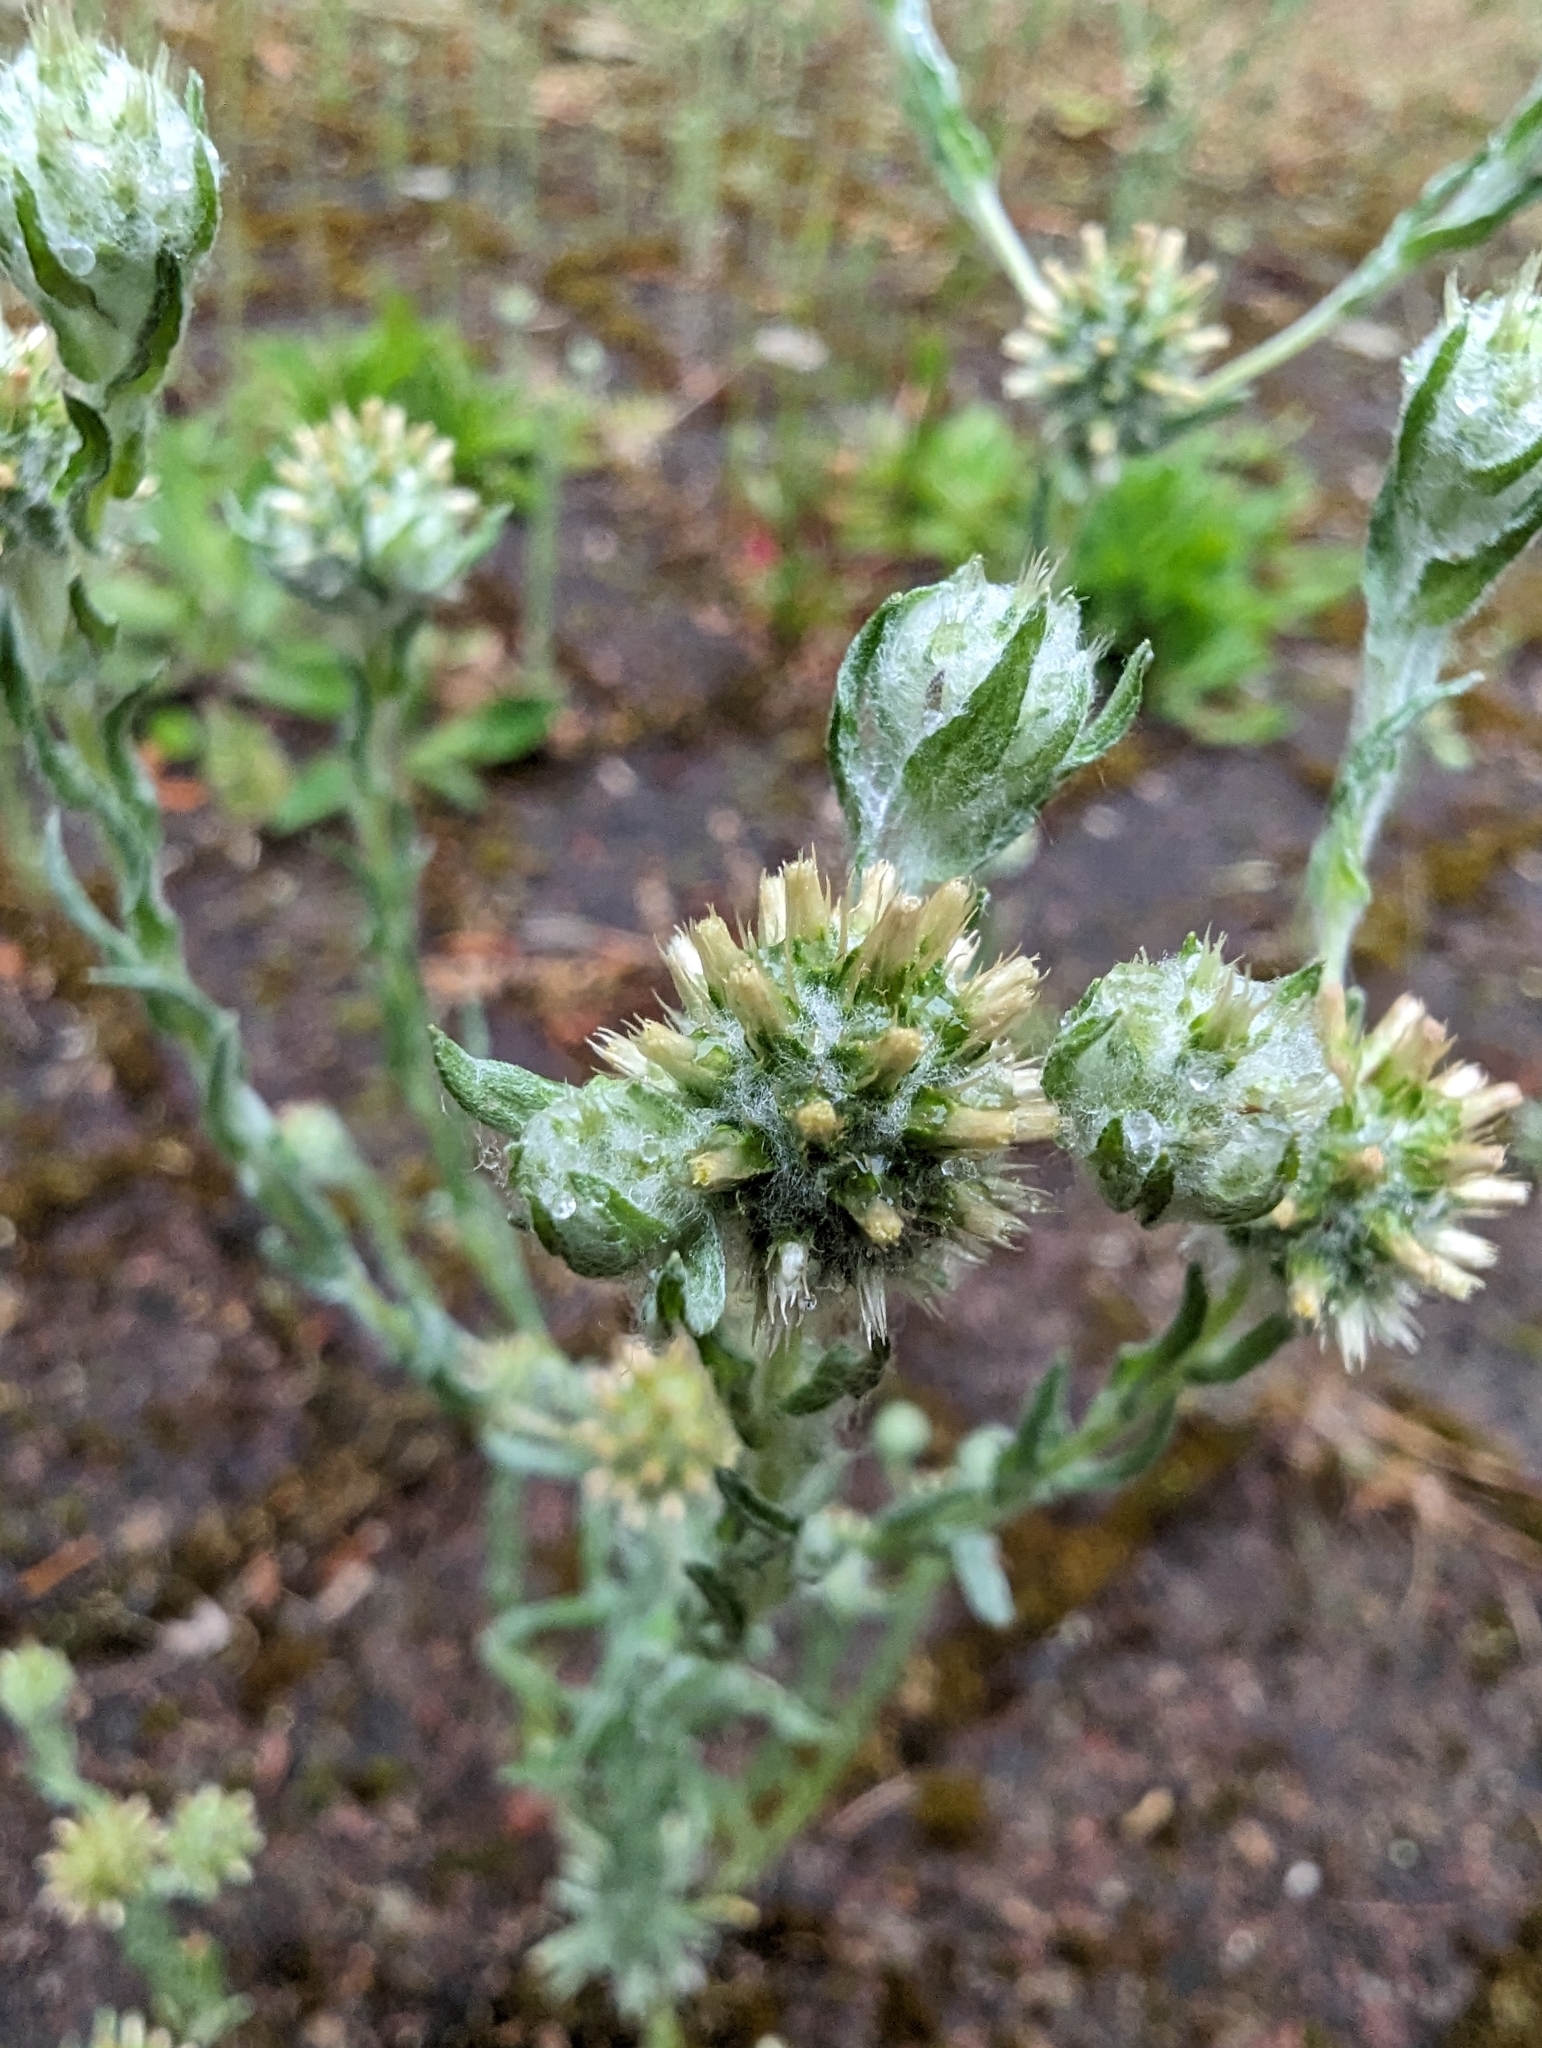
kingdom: Plantae
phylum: Tracheophyta
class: Magnoliopsida
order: Asterales
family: Asteraceae
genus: Filago
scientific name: Filago germanica
